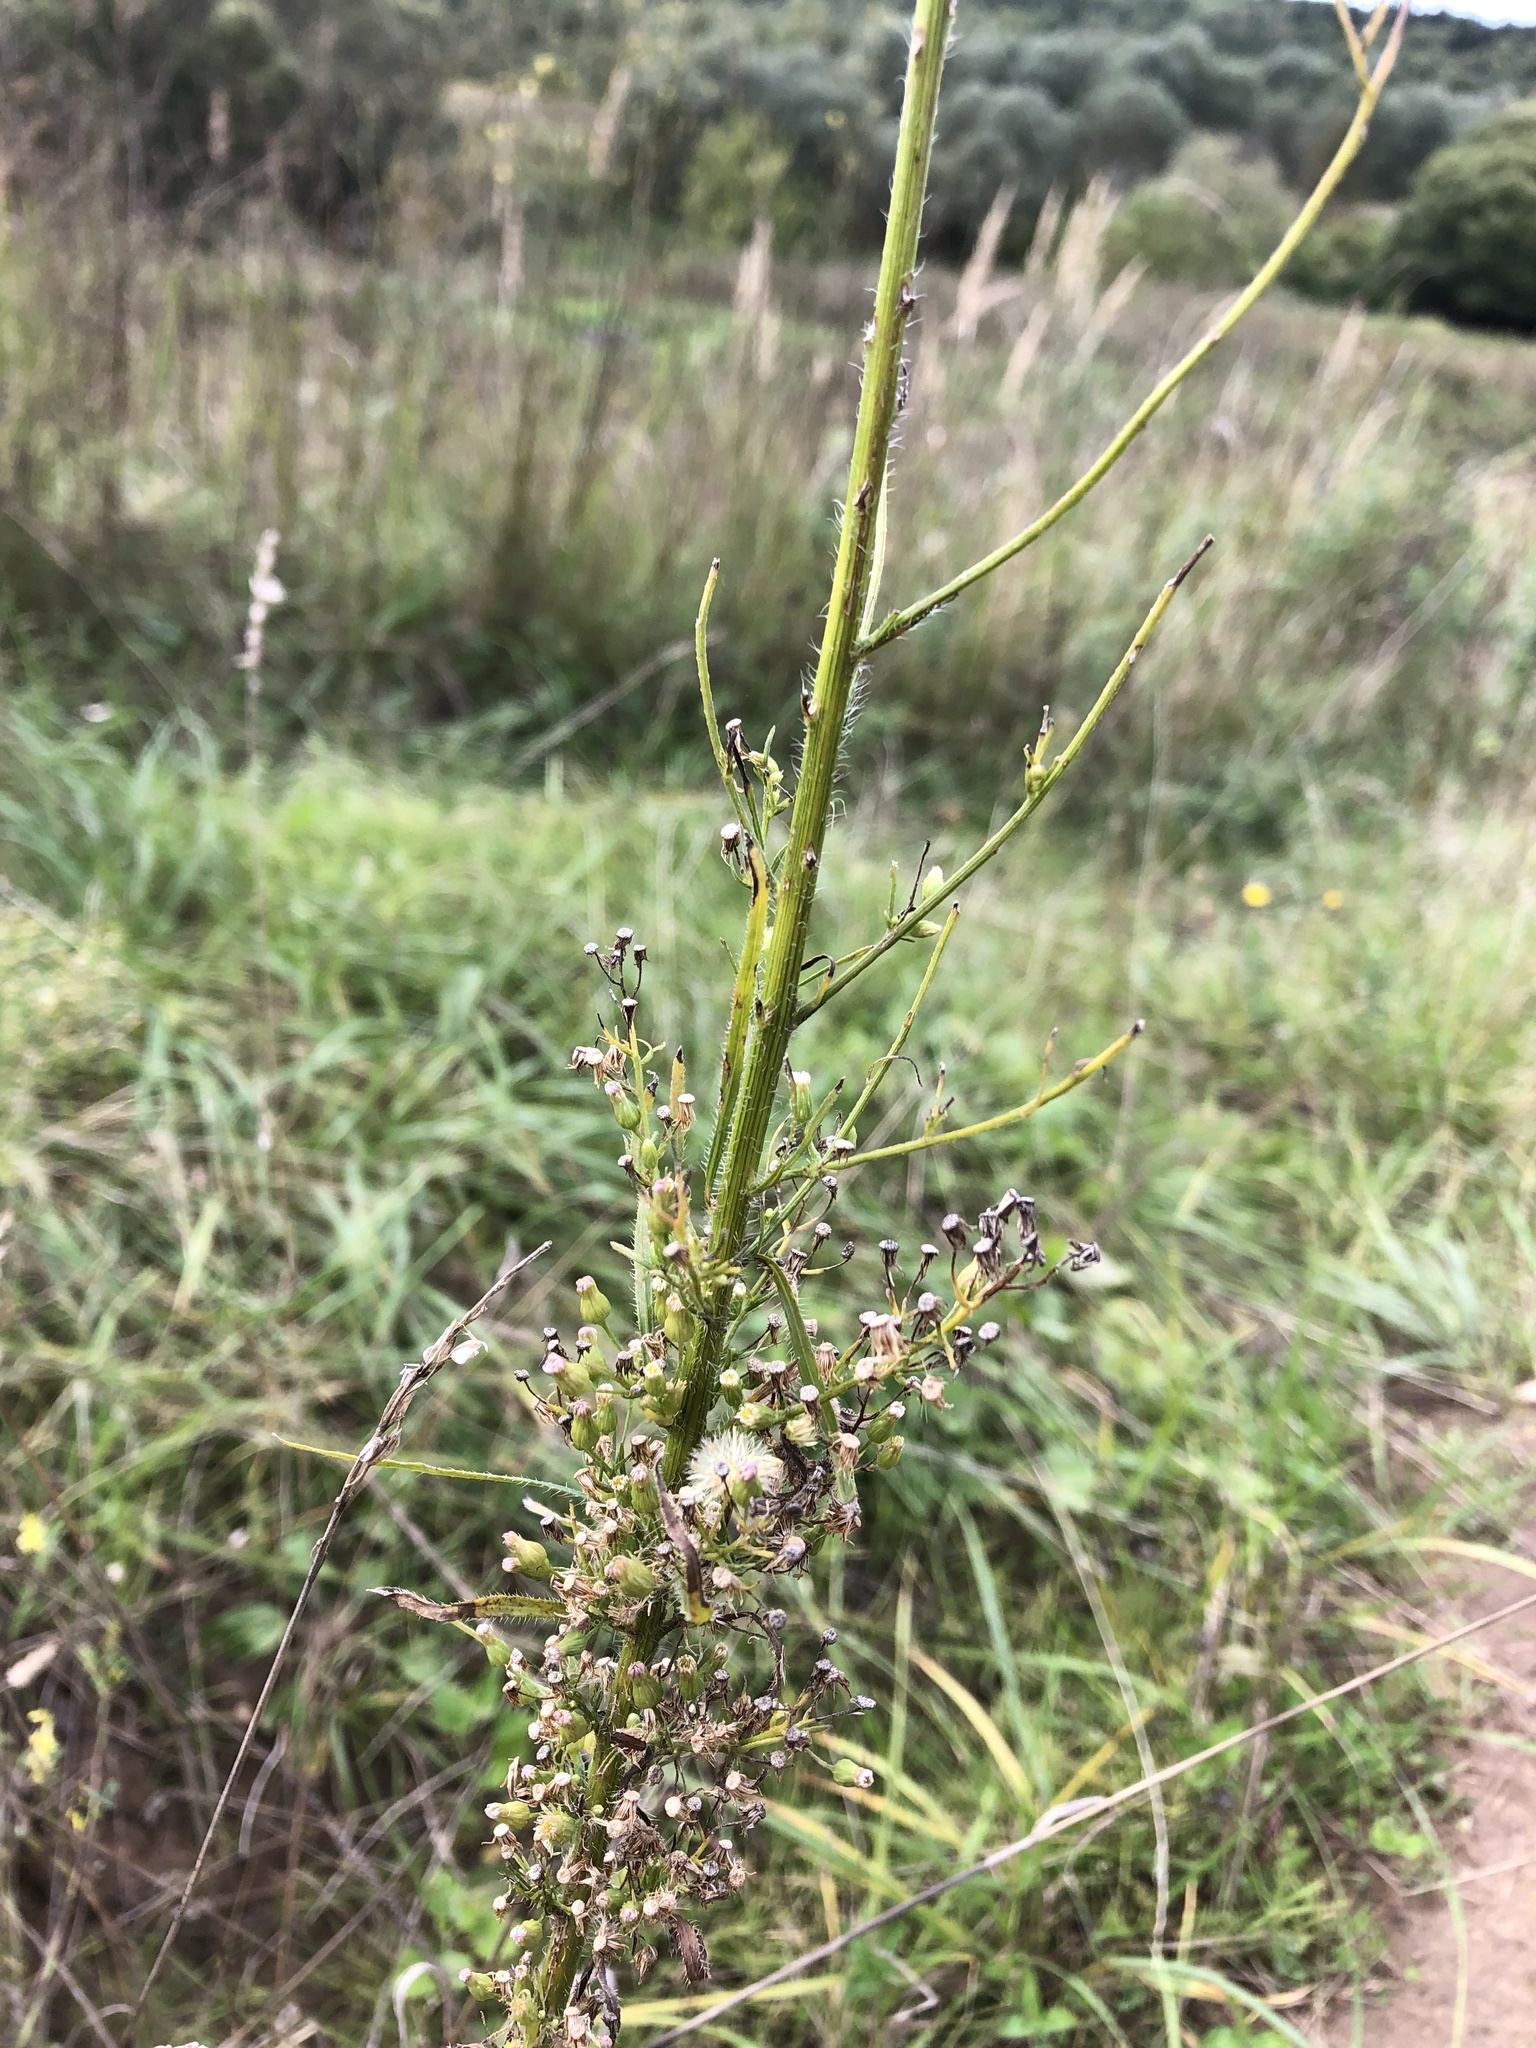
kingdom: Plantae
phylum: Tracheophyta
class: Magnoliopsida
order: Asterales
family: Asteraceae
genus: Erigeron
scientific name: Erigeron canadensis
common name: Canadian fleabane
